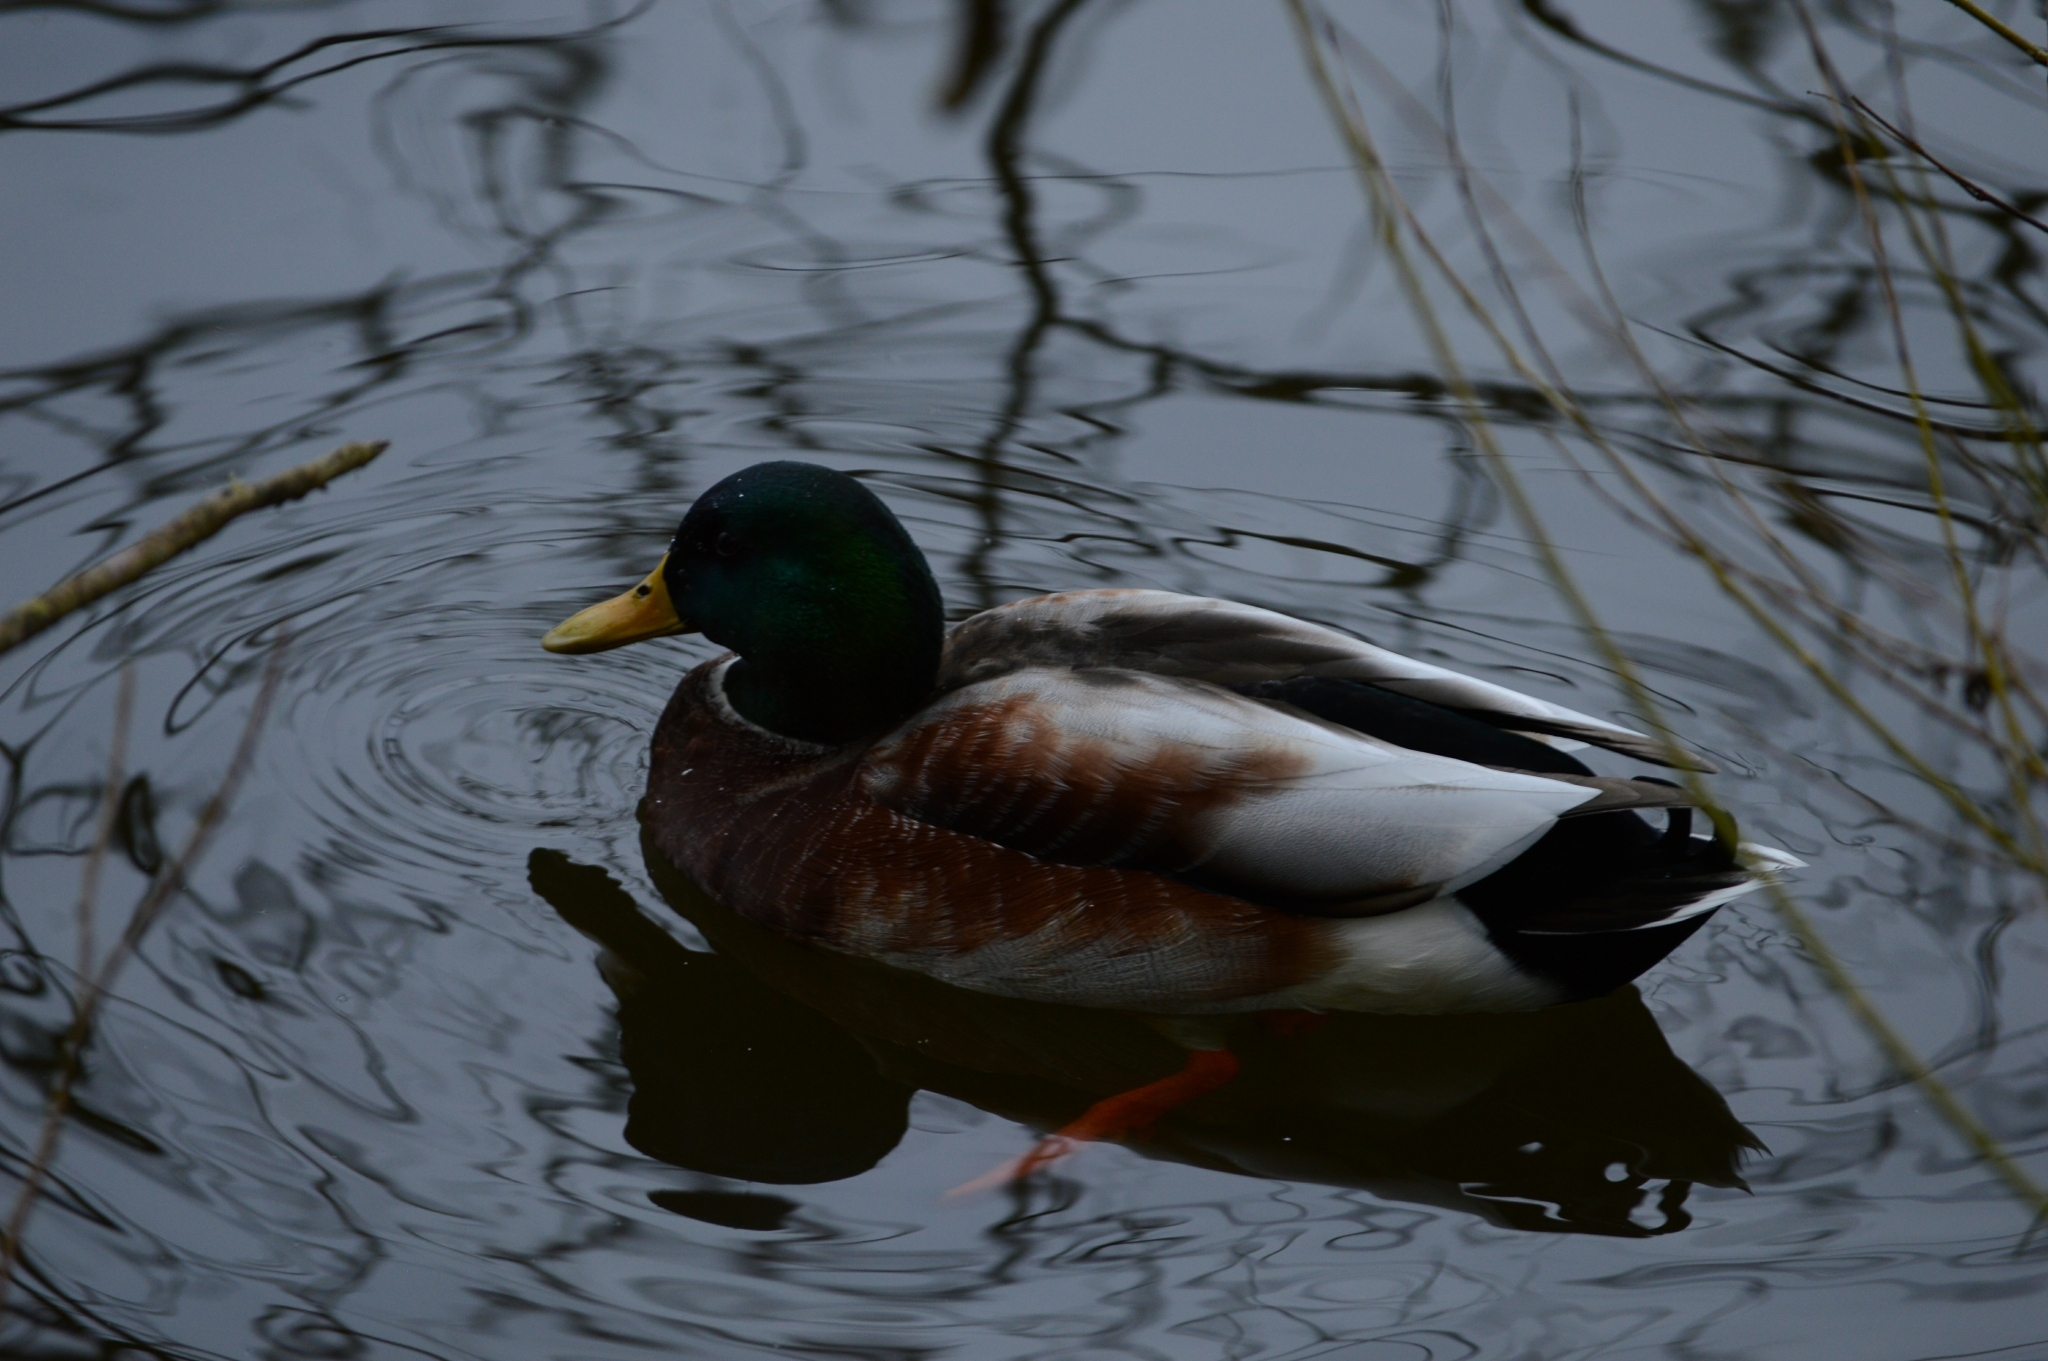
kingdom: Animalia
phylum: Chordata
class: Aves
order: Anseriformes
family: Anatidae
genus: Anas
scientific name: Anas platyrhynchos
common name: Mallard
